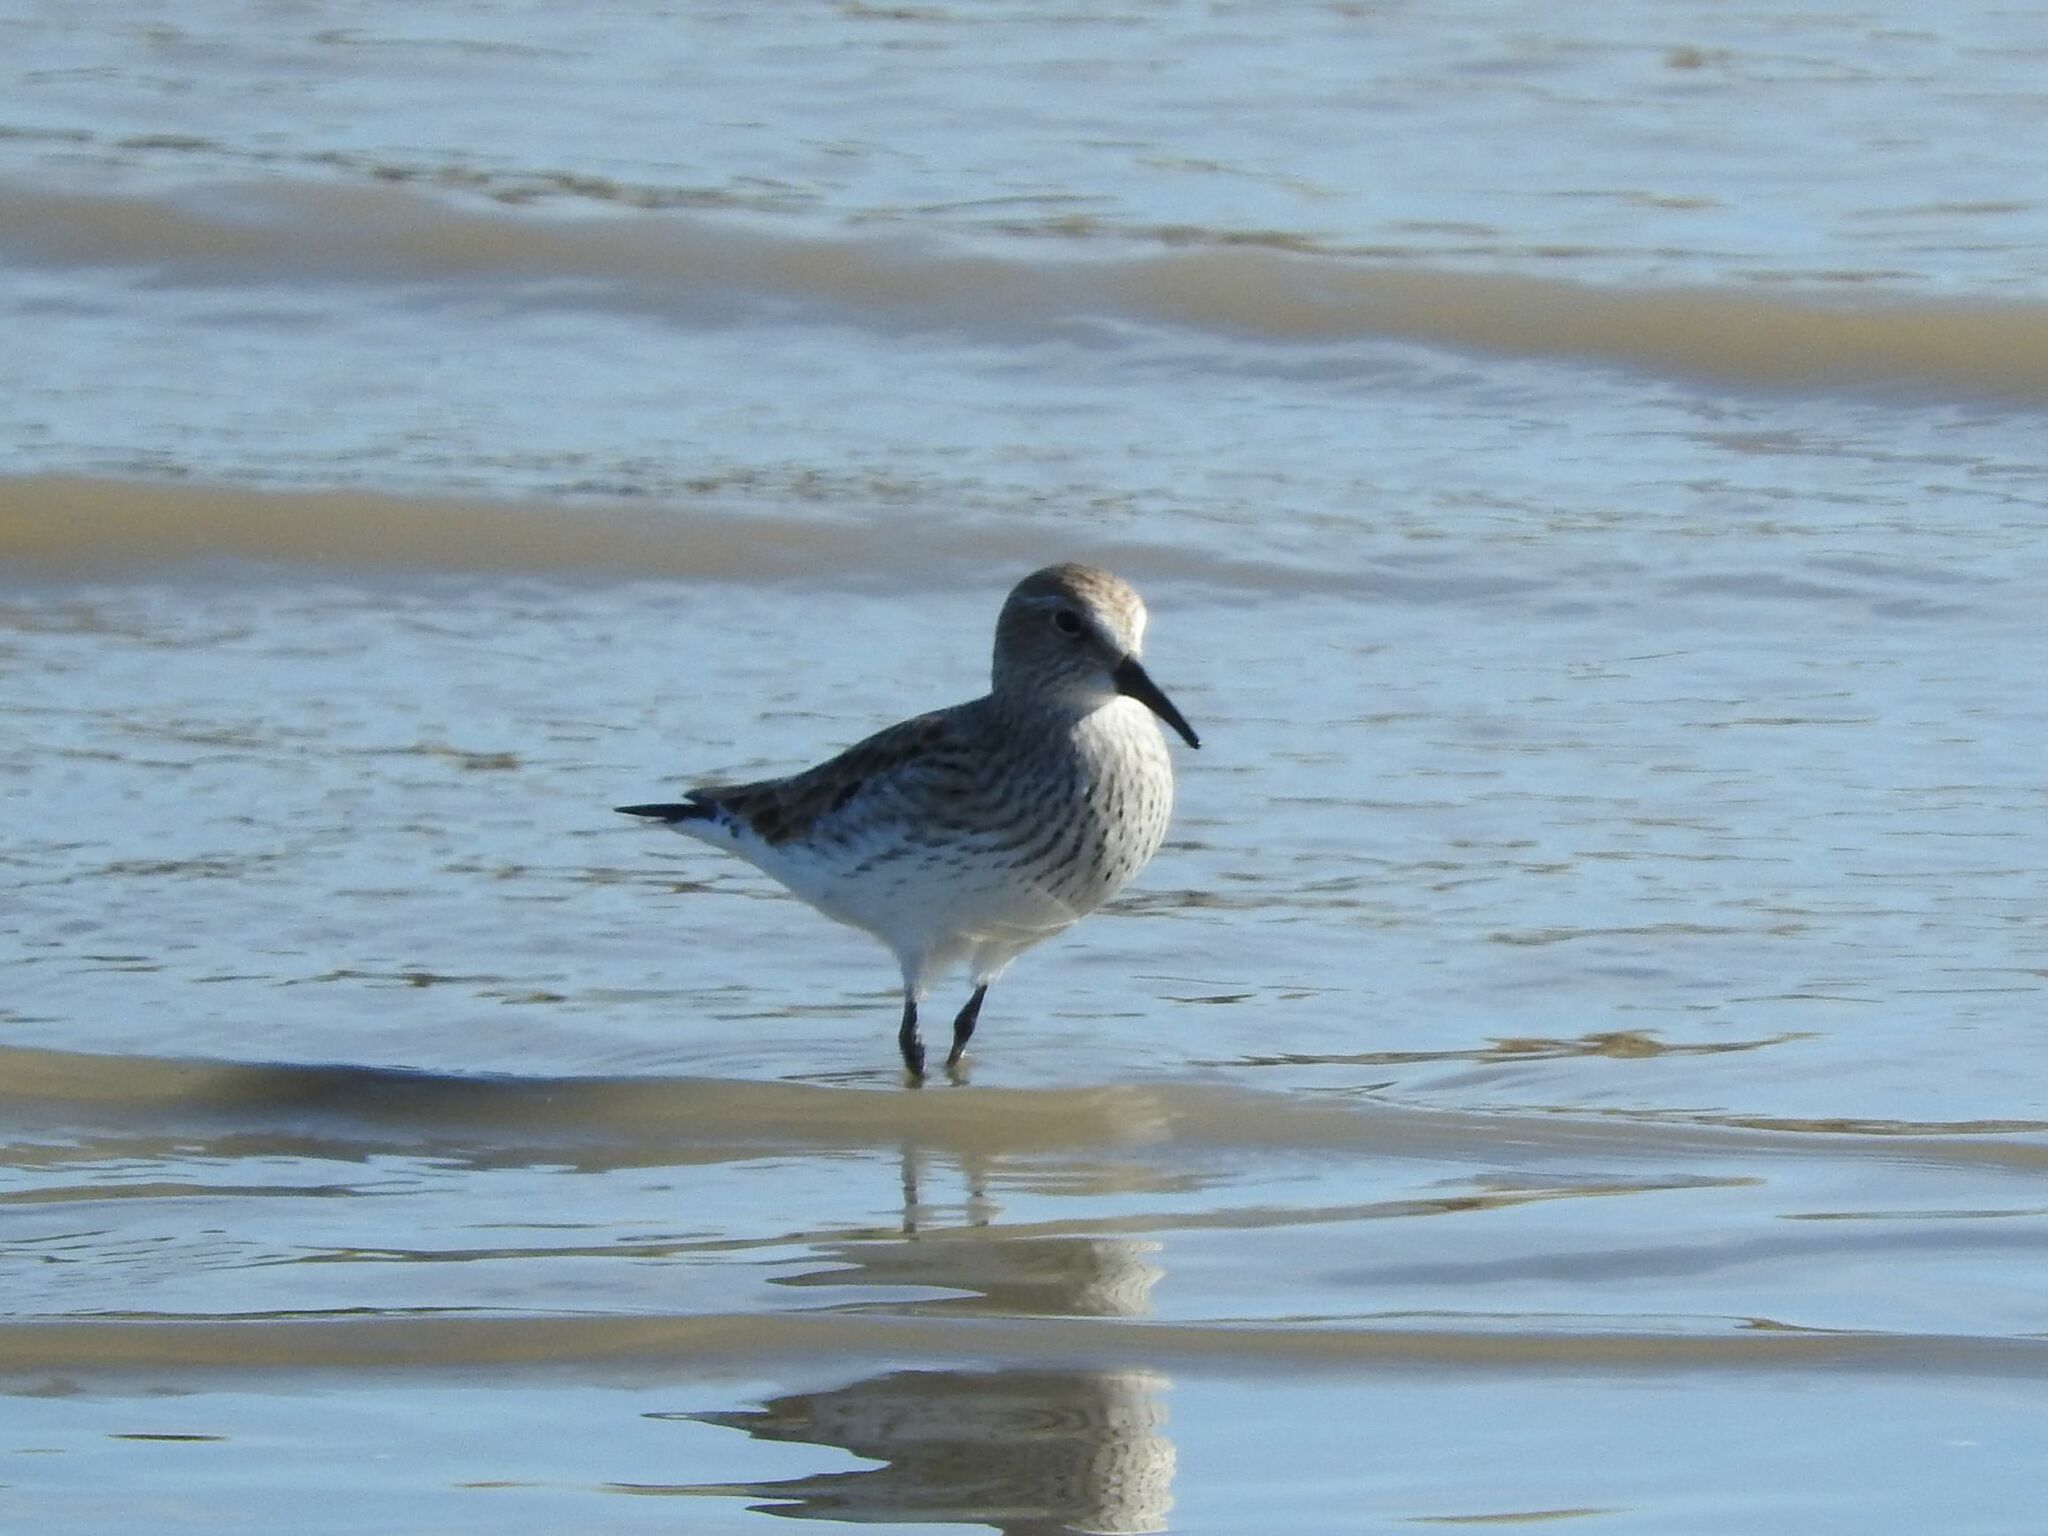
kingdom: Animalia
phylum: Chordata
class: Aves
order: Charadriiformes
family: Scolopacidae
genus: Calidris
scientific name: Calidris fuscicollis
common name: White-rumped sandpiper
